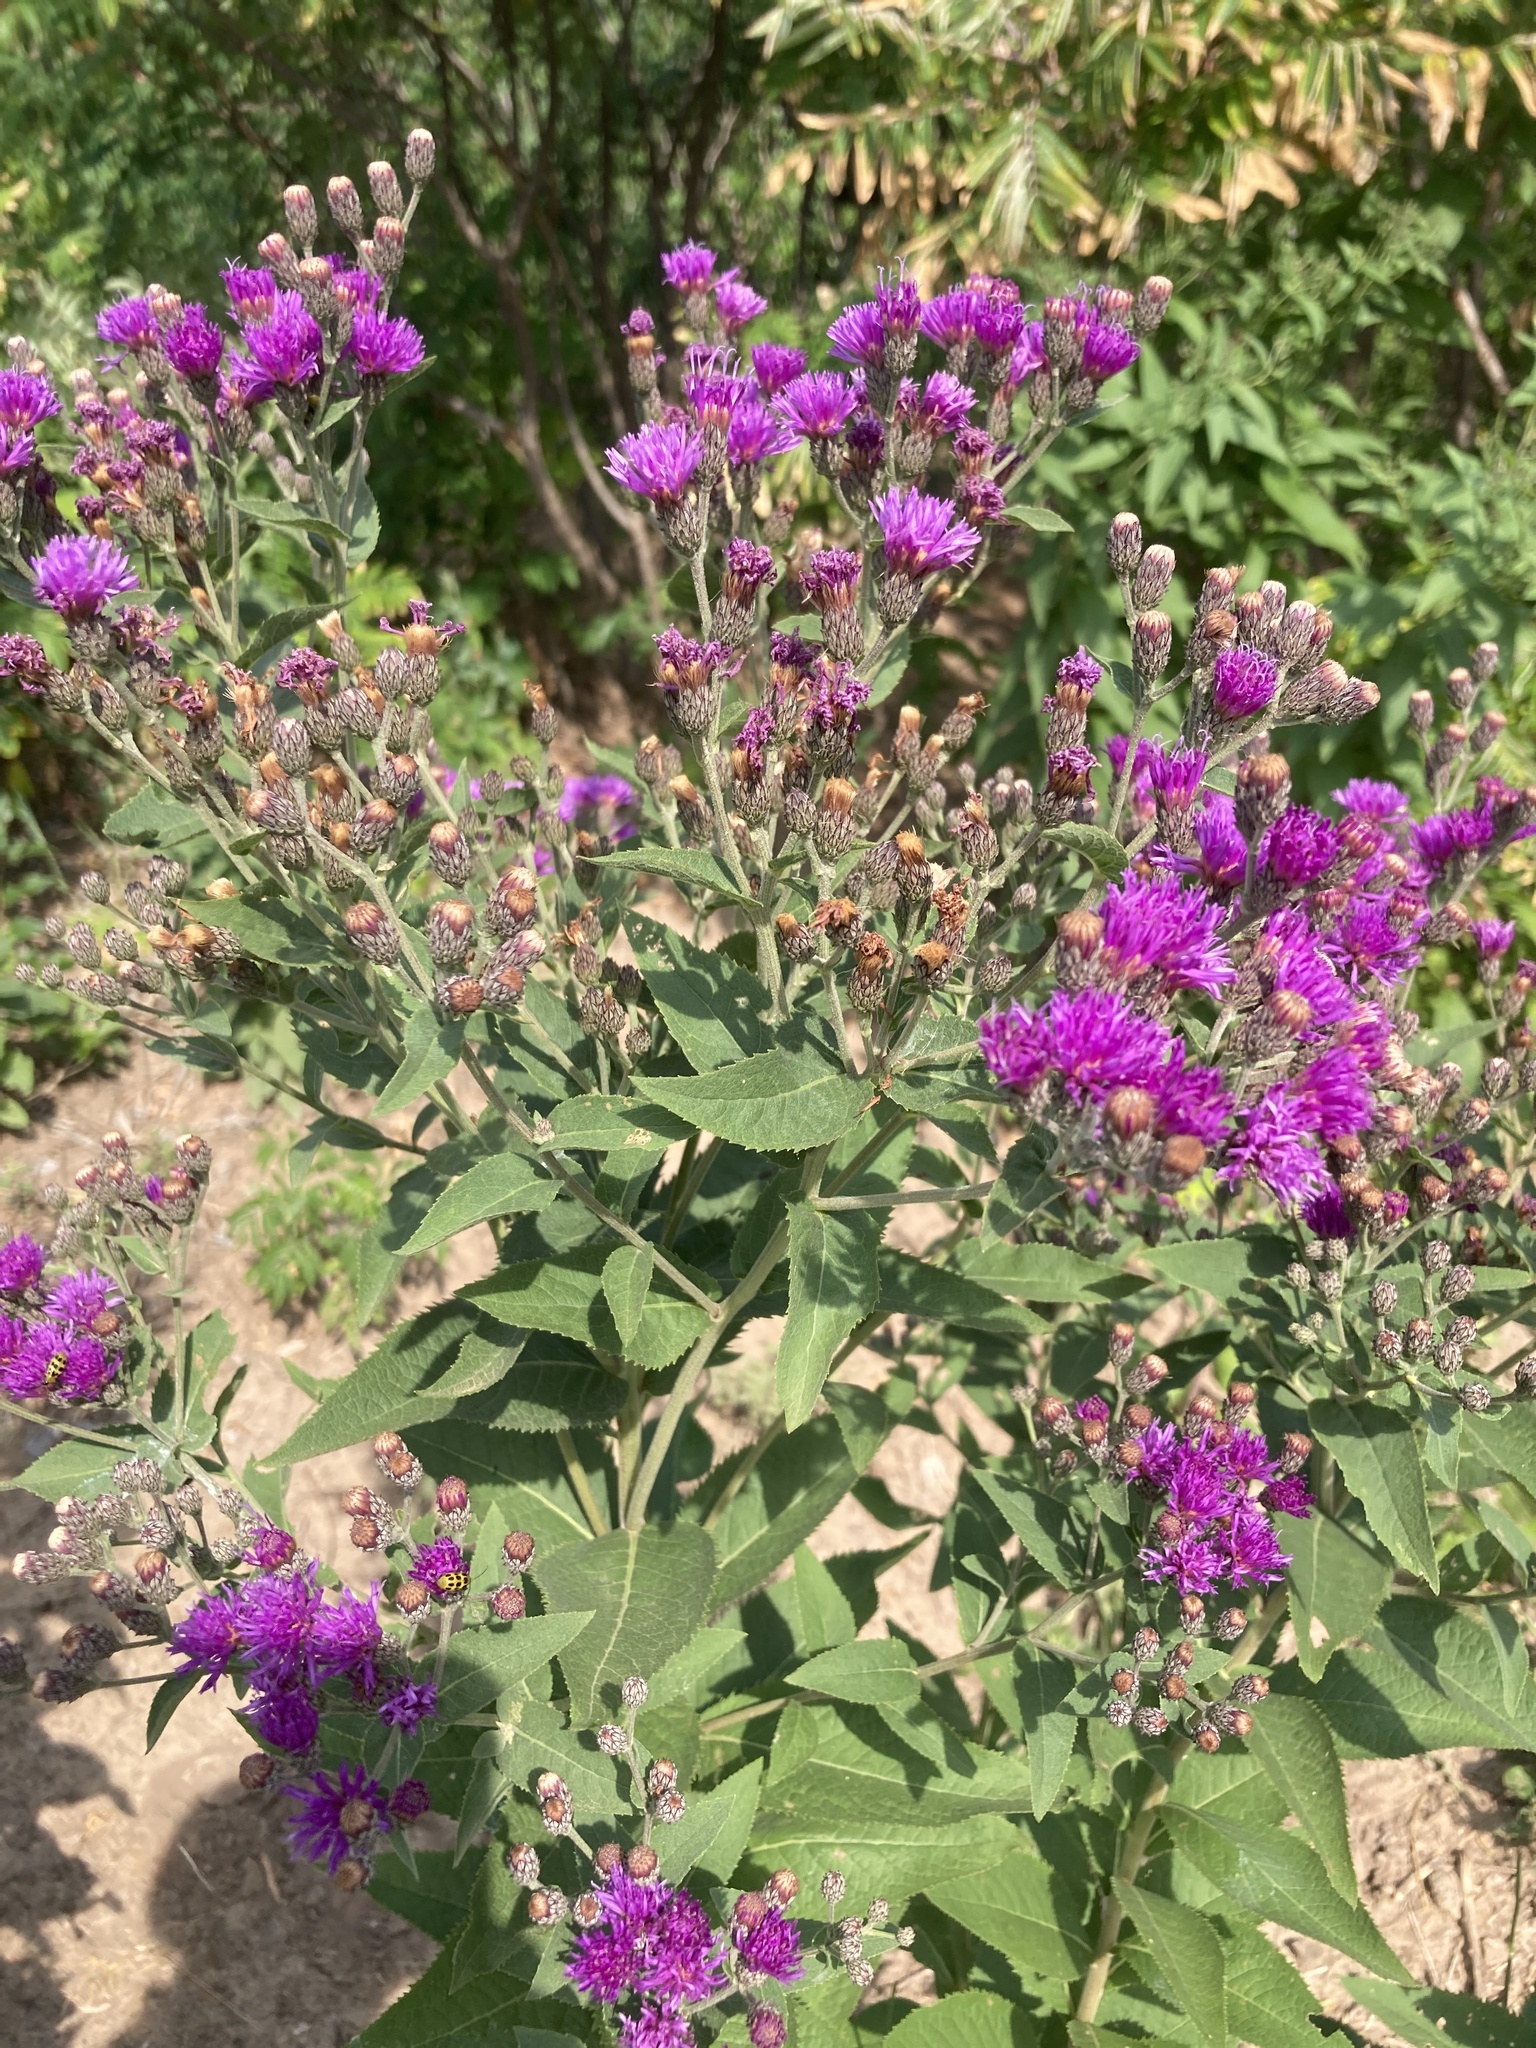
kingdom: Plantae
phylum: Tracheophyta
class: Magnoliopsida
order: Asterales
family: Asteraceae
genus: Vernonia
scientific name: Vernonia baldwinii
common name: Western ironweed
